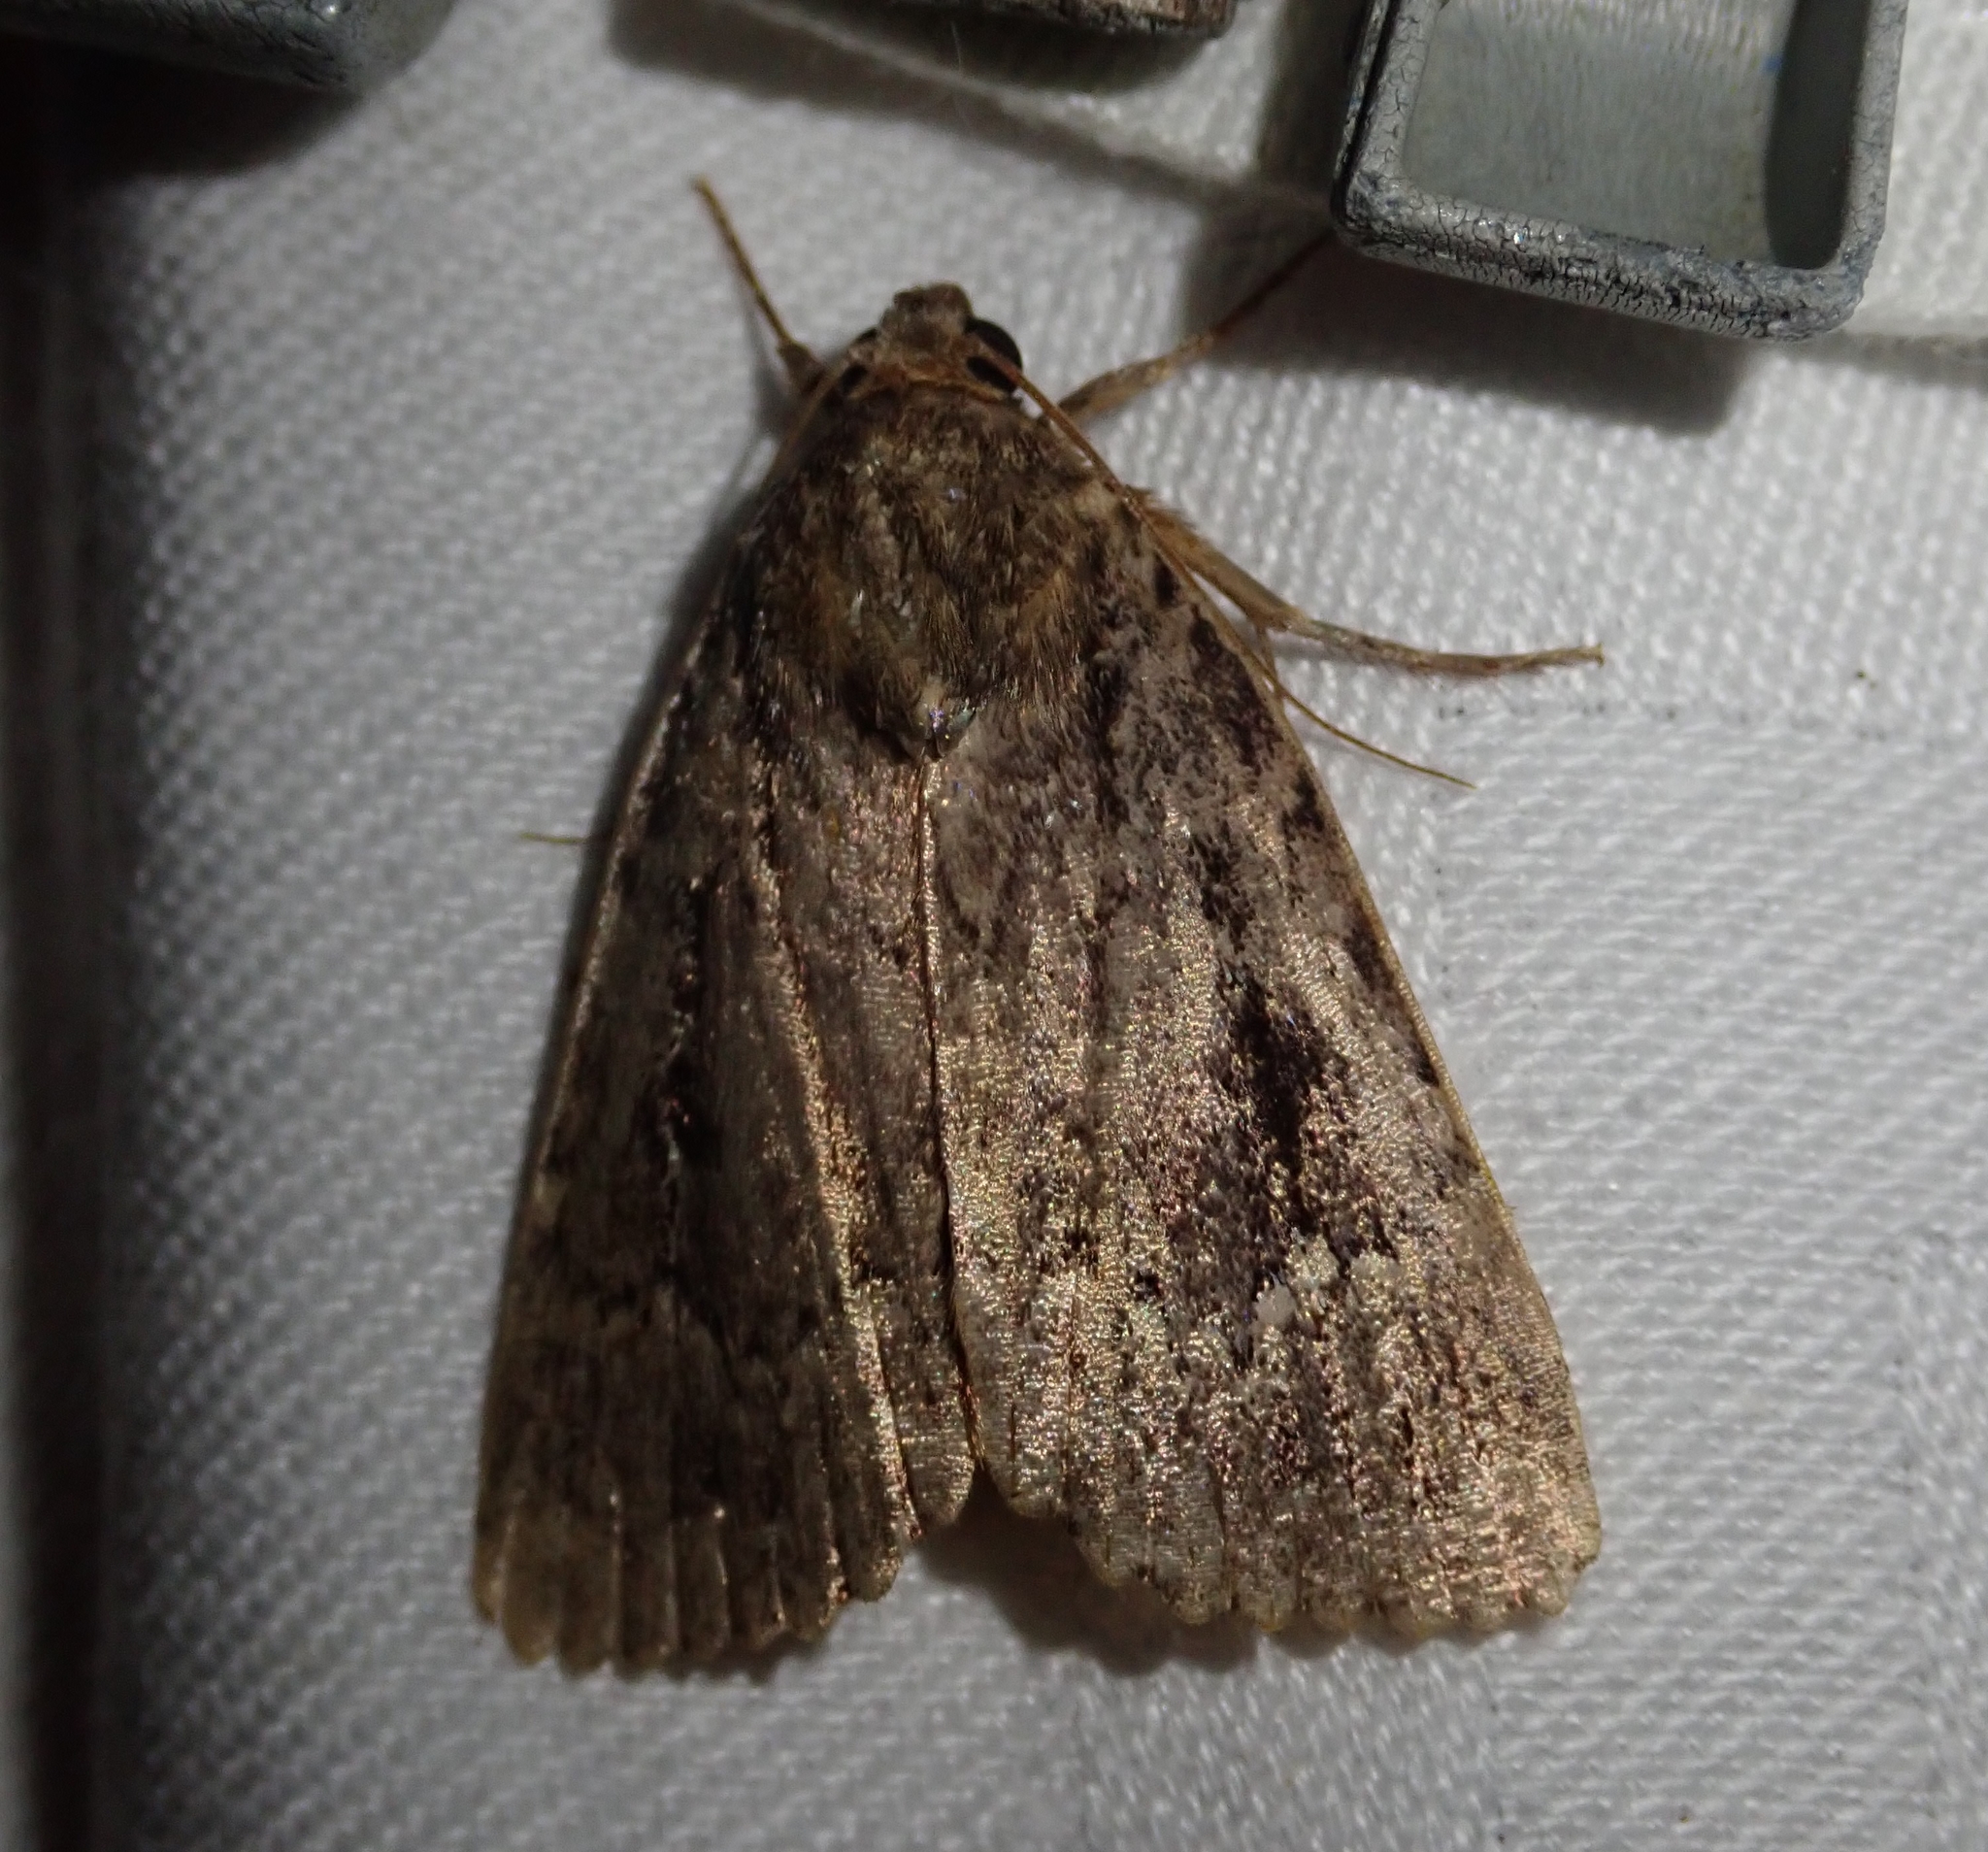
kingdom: Animalia
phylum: Arthropoda
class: Insecta
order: Lepidoptera
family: Noctuidae
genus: Amphipyra
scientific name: Amphipyra
